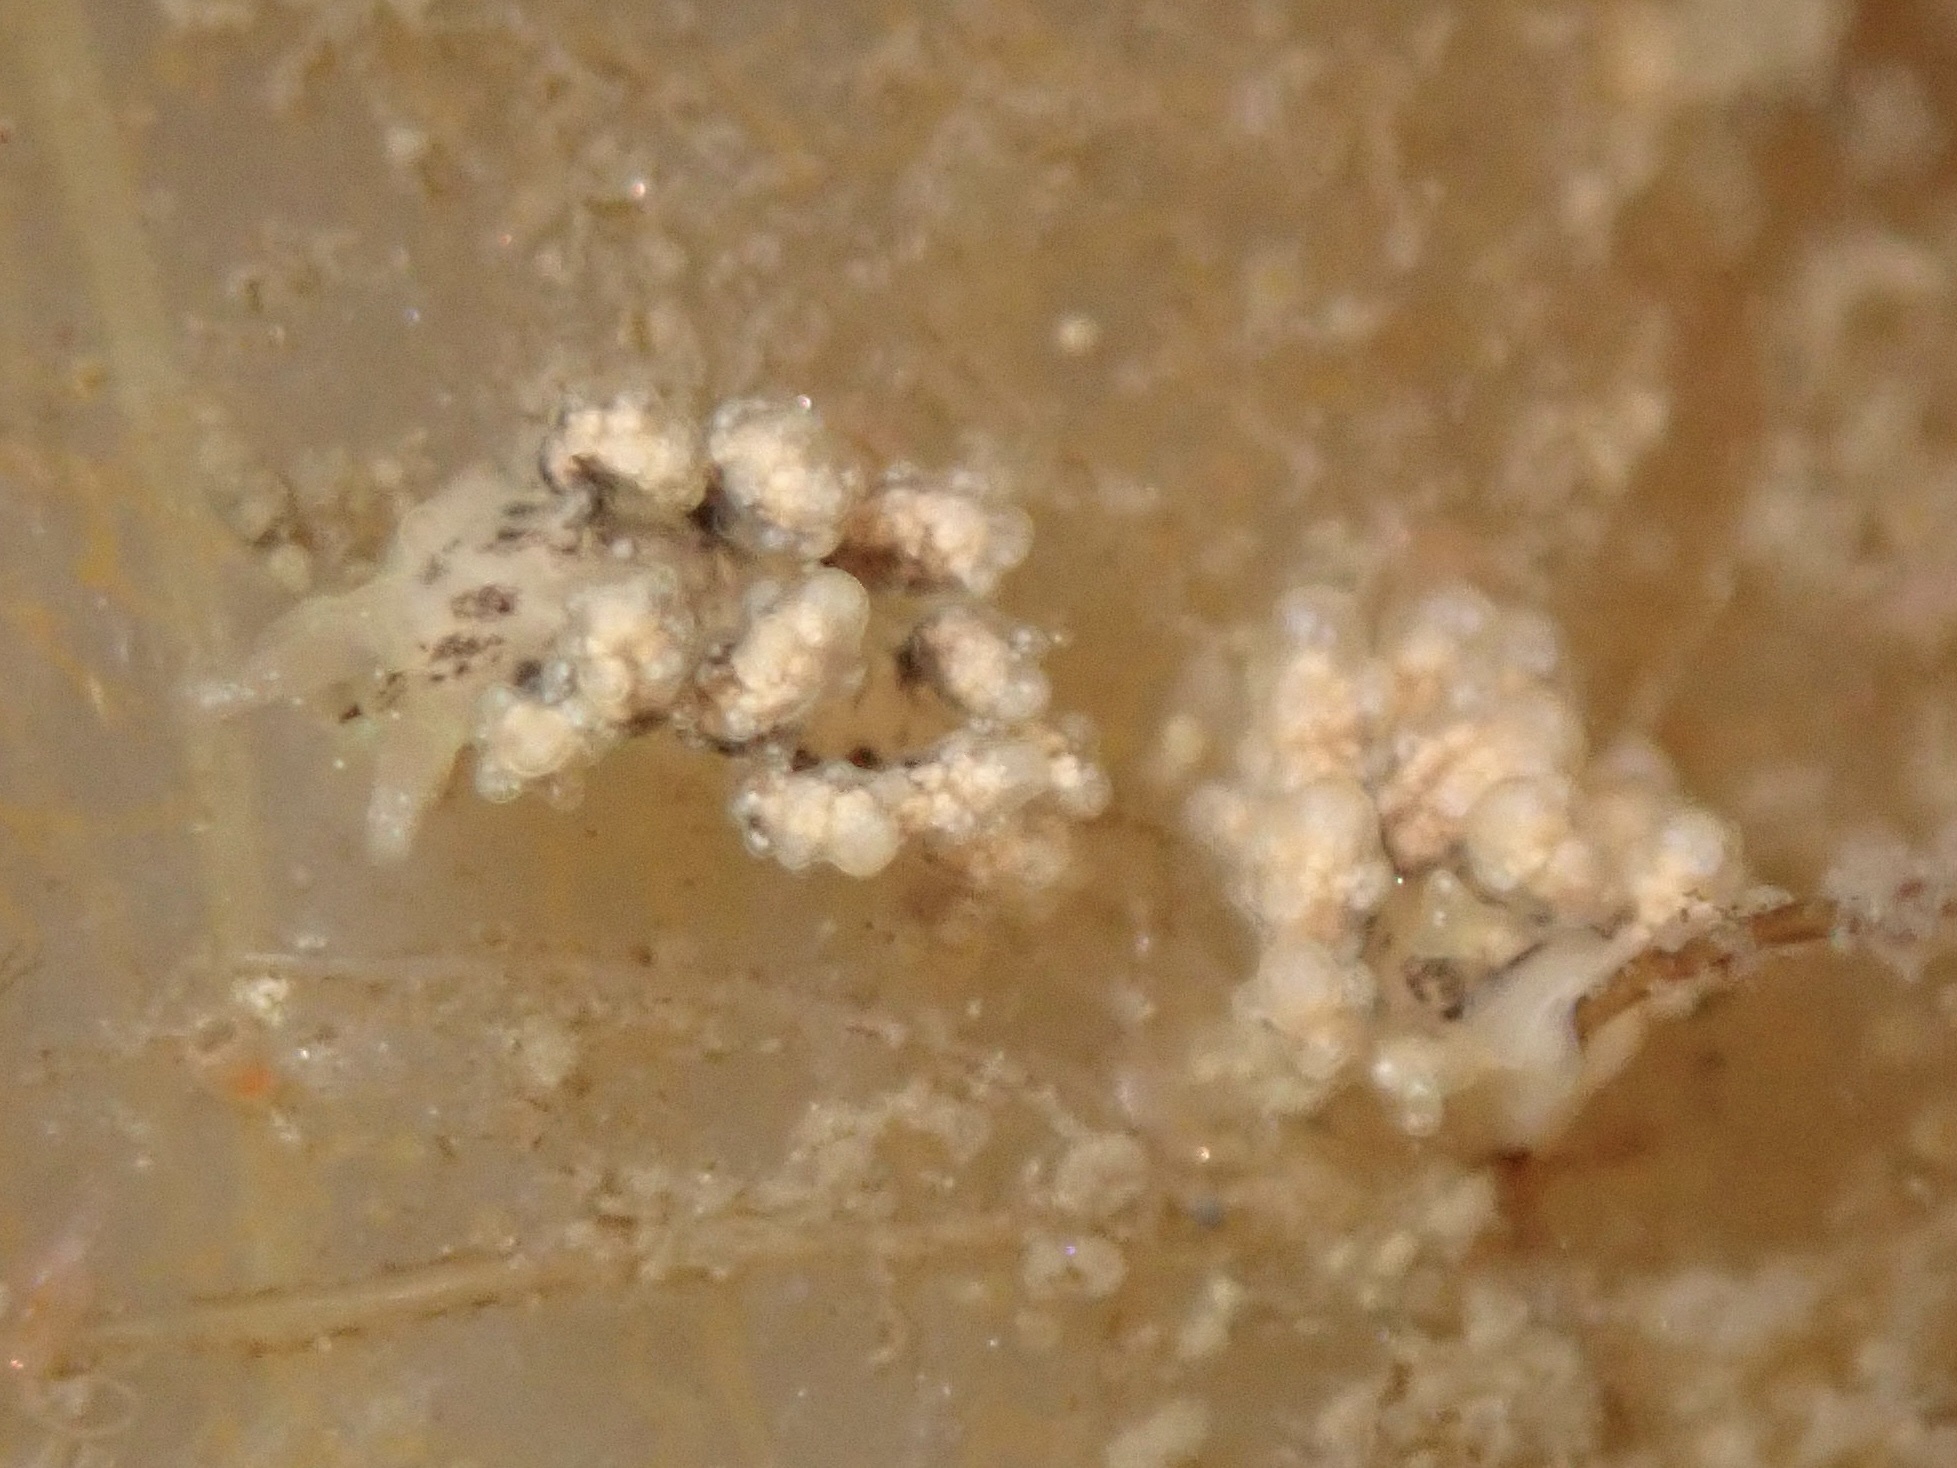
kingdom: Animalia
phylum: Mollusca
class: Gastropoda
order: Nudibranchia
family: Dotidae
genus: Doto
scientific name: Doto kya
